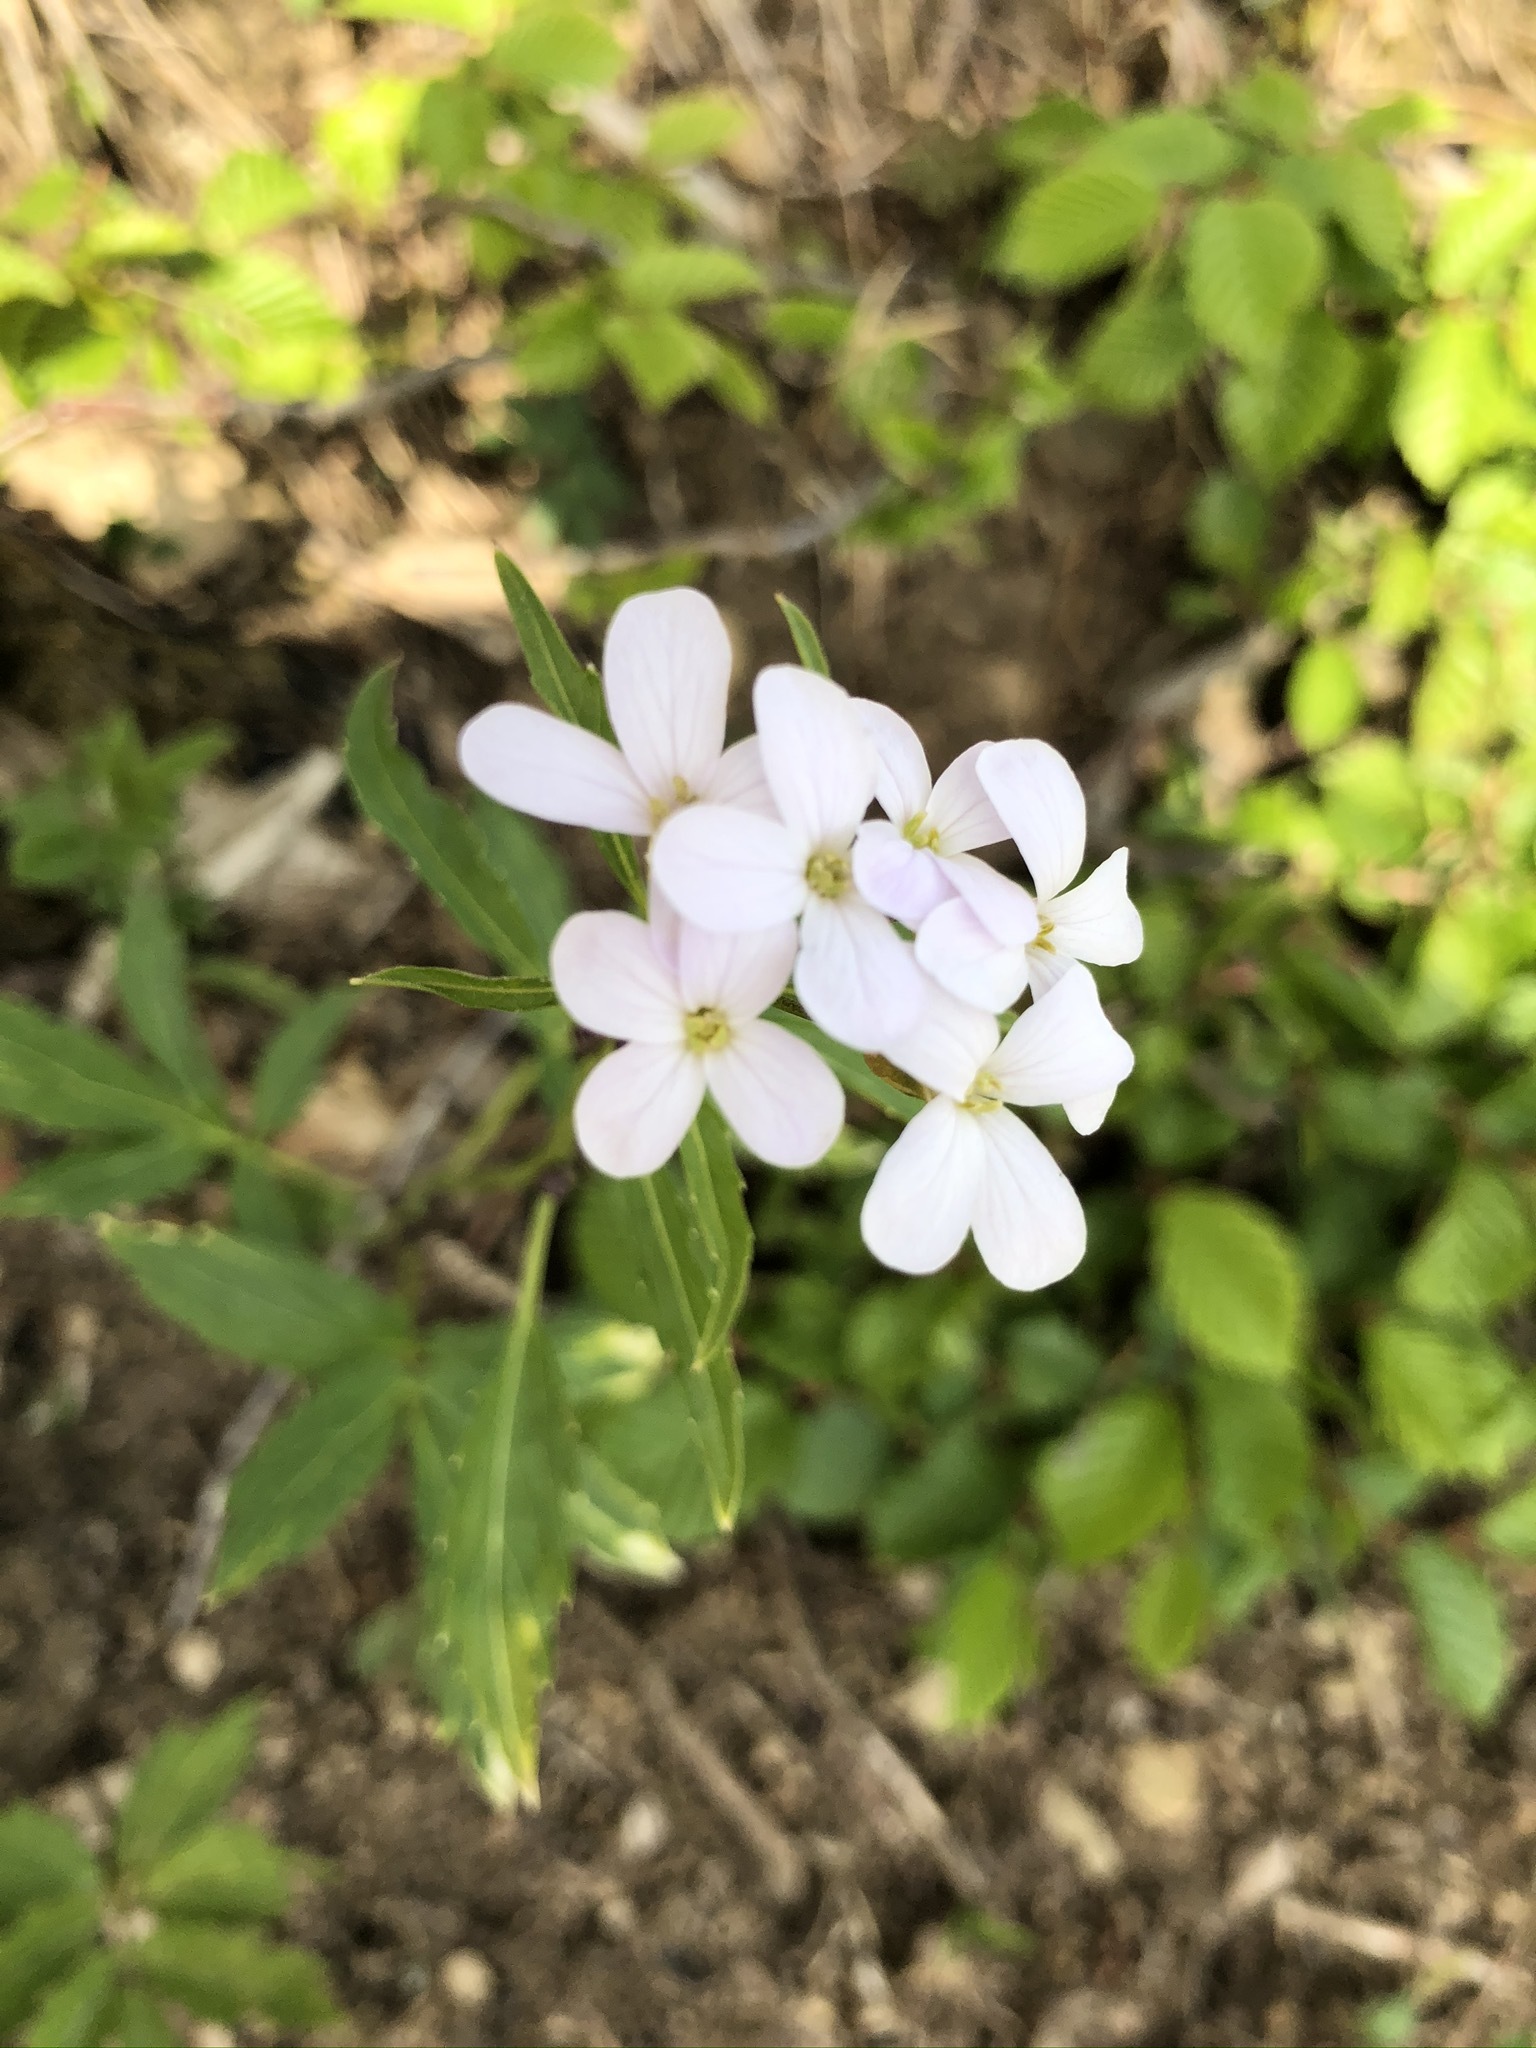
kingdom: Plantae
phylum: Tracheophyta
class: Magnoliopsida
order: Brassicales
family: Brassicaceae
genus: Cardamine
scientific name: Cardamine bulbifera
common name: Coralroot bittercress
